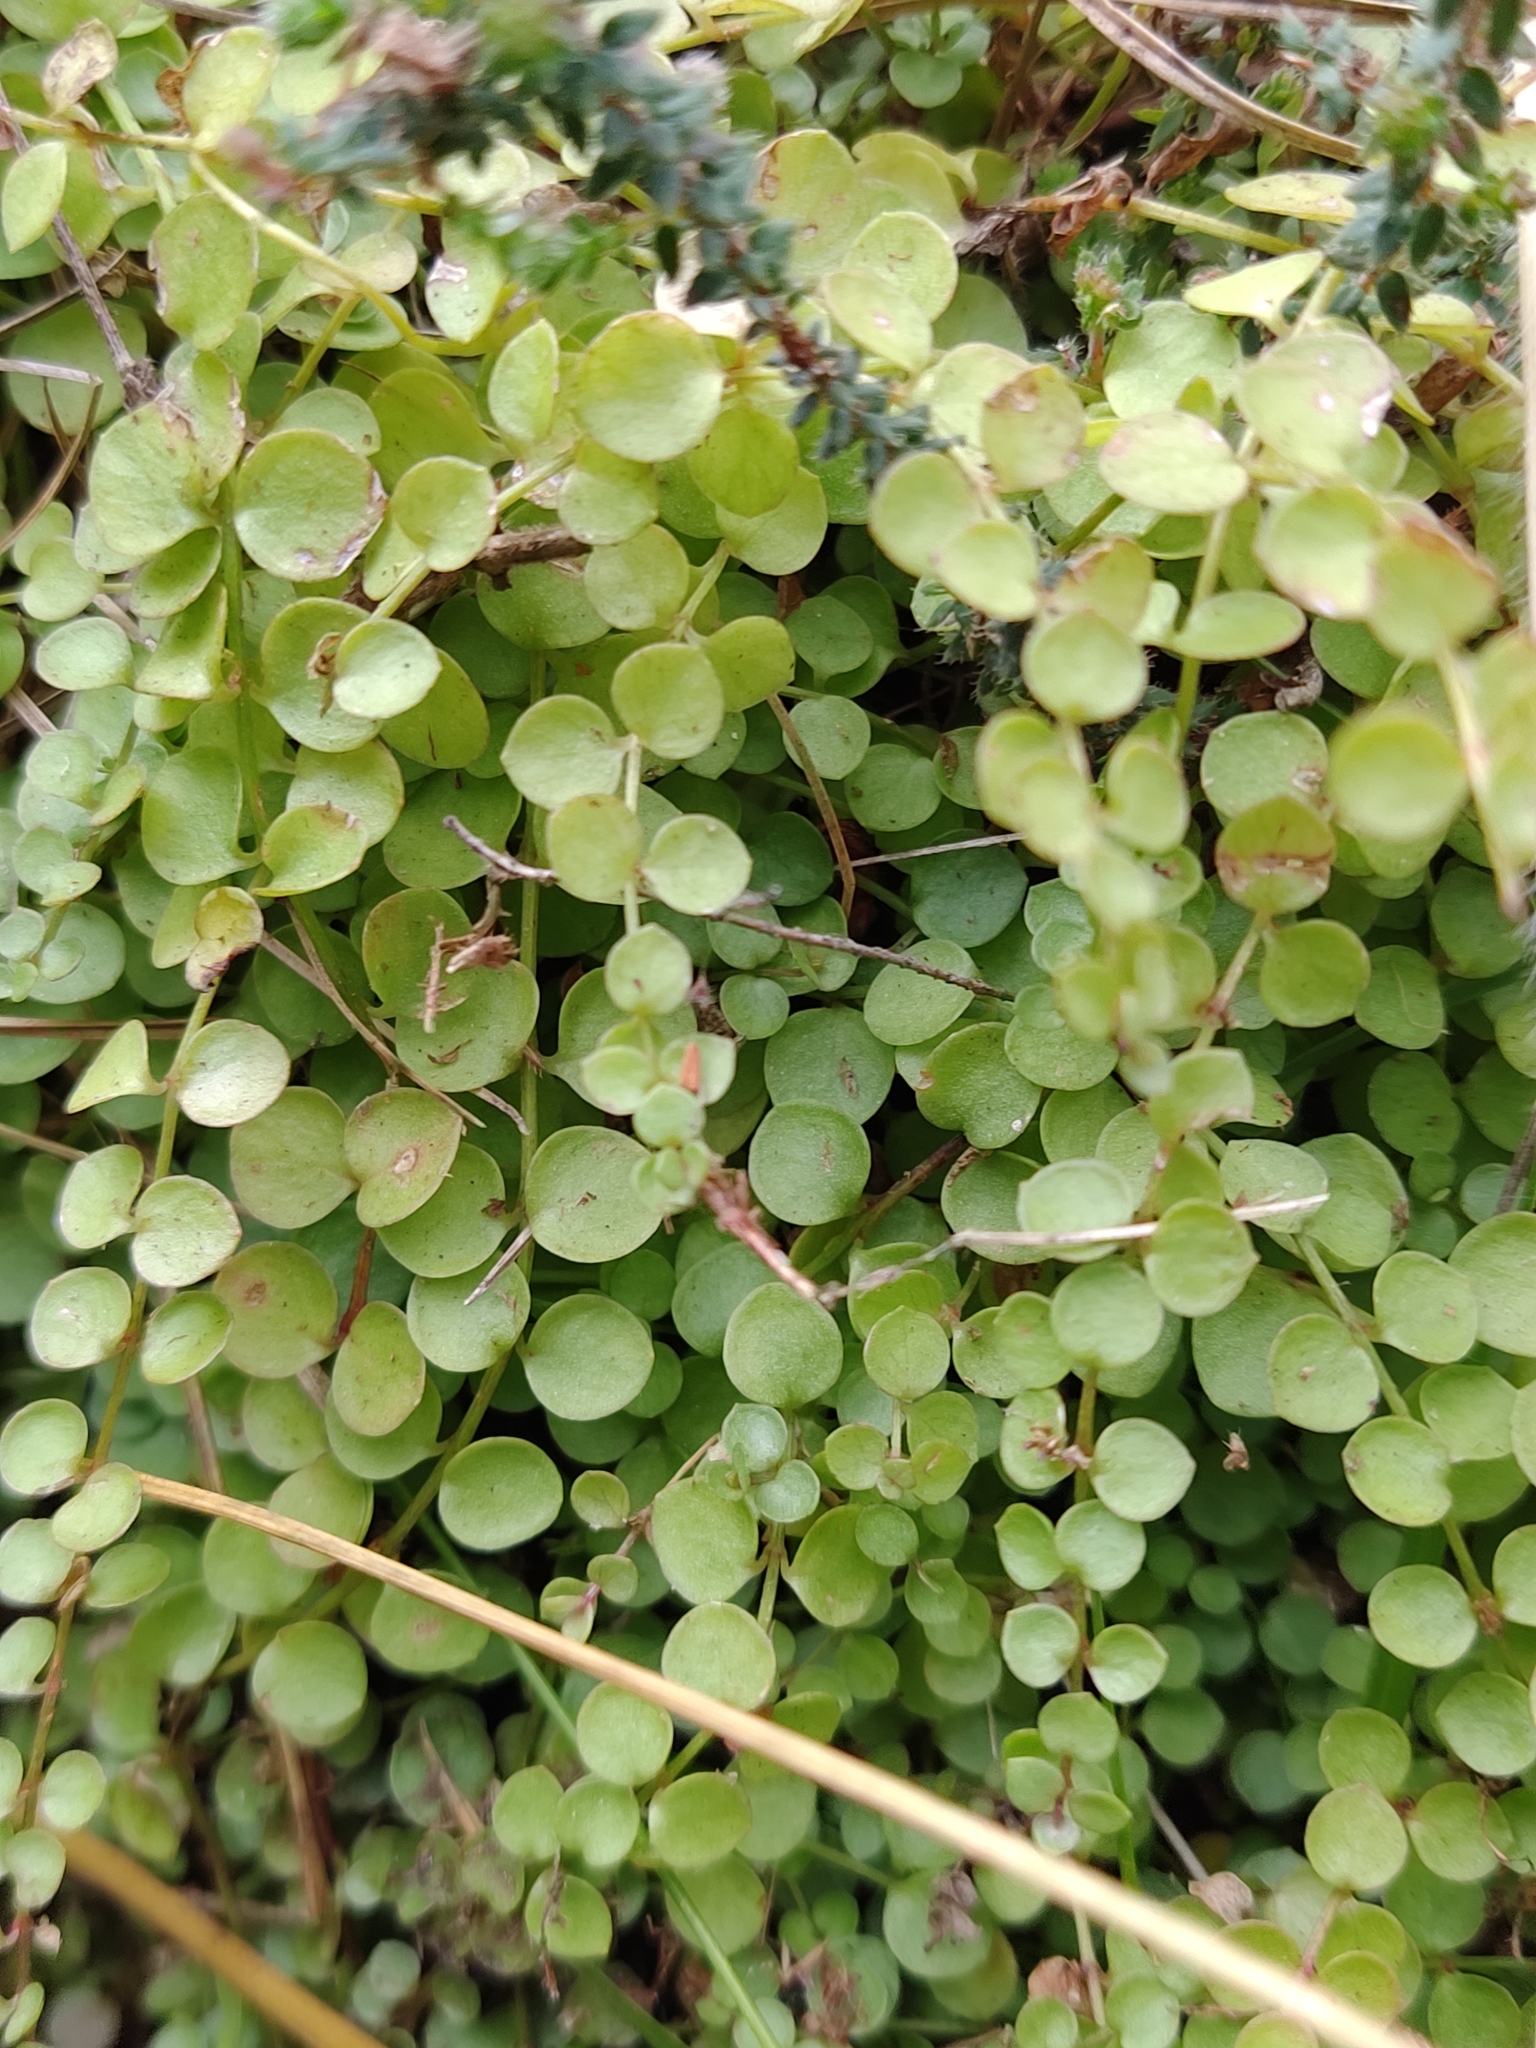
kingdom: Plantae
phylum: Tracheophyta
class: Magnoliopsida
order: Ericales
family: Primulaceae
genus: Lysimachia
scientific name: Lysimachia tenella
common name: European bog pimpernel
